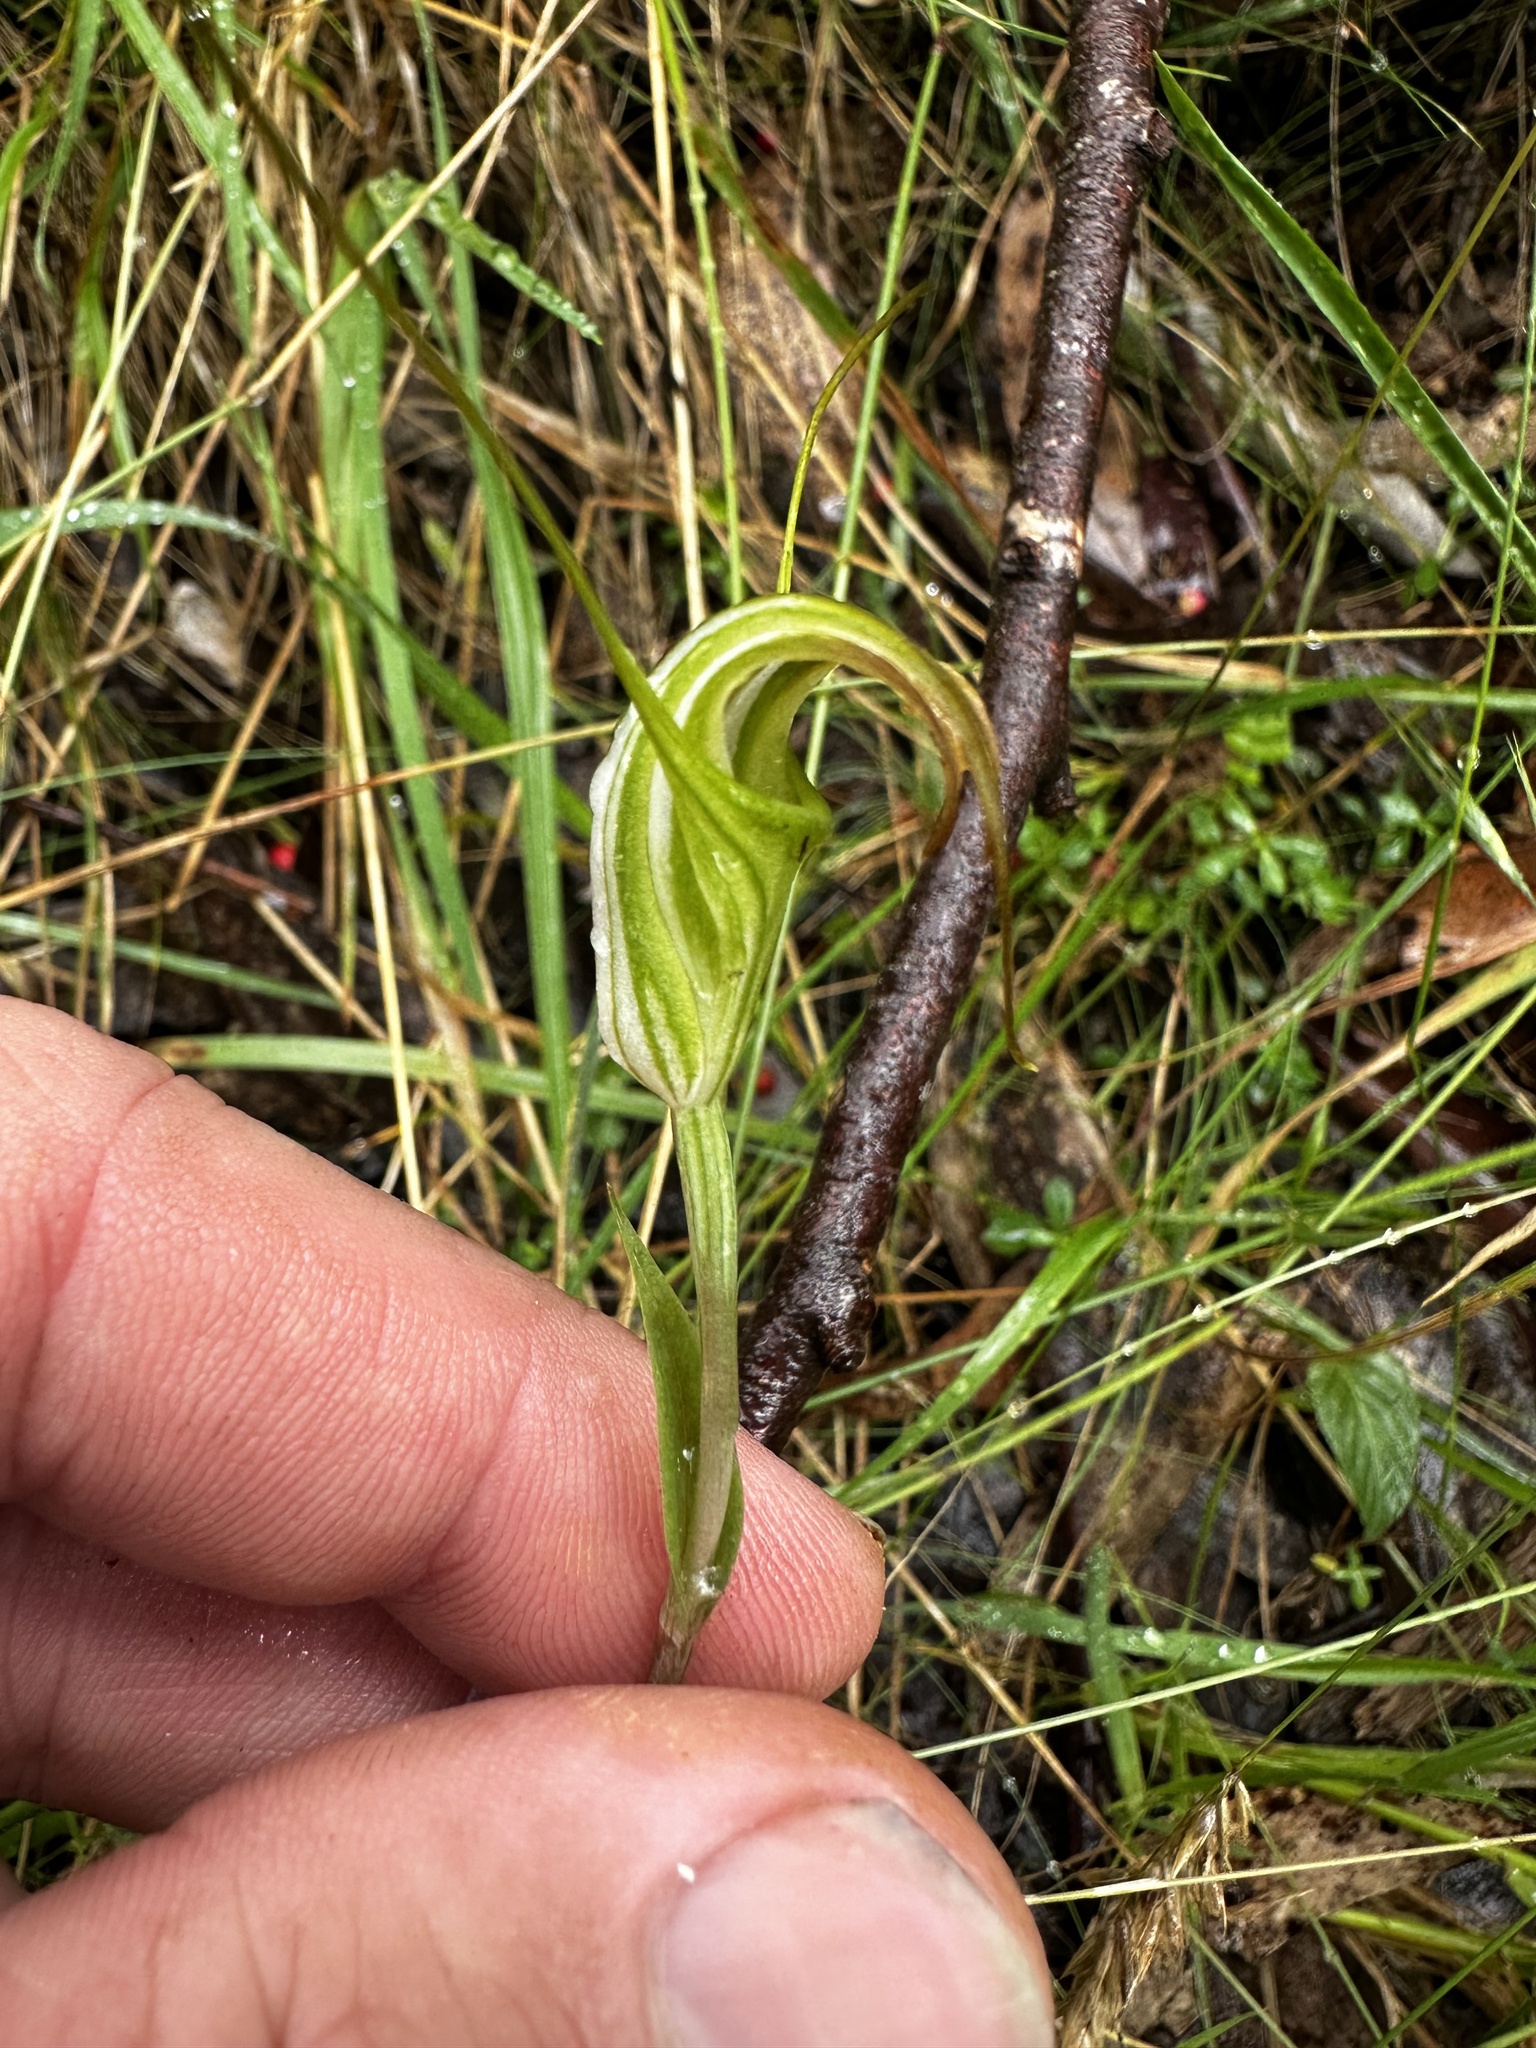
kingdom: Plantae
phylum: Tracheophyta
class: Liliopsida
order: Asparagales
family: Orchidaceae
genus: Pterostylis
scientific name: Pterostylis decurva
